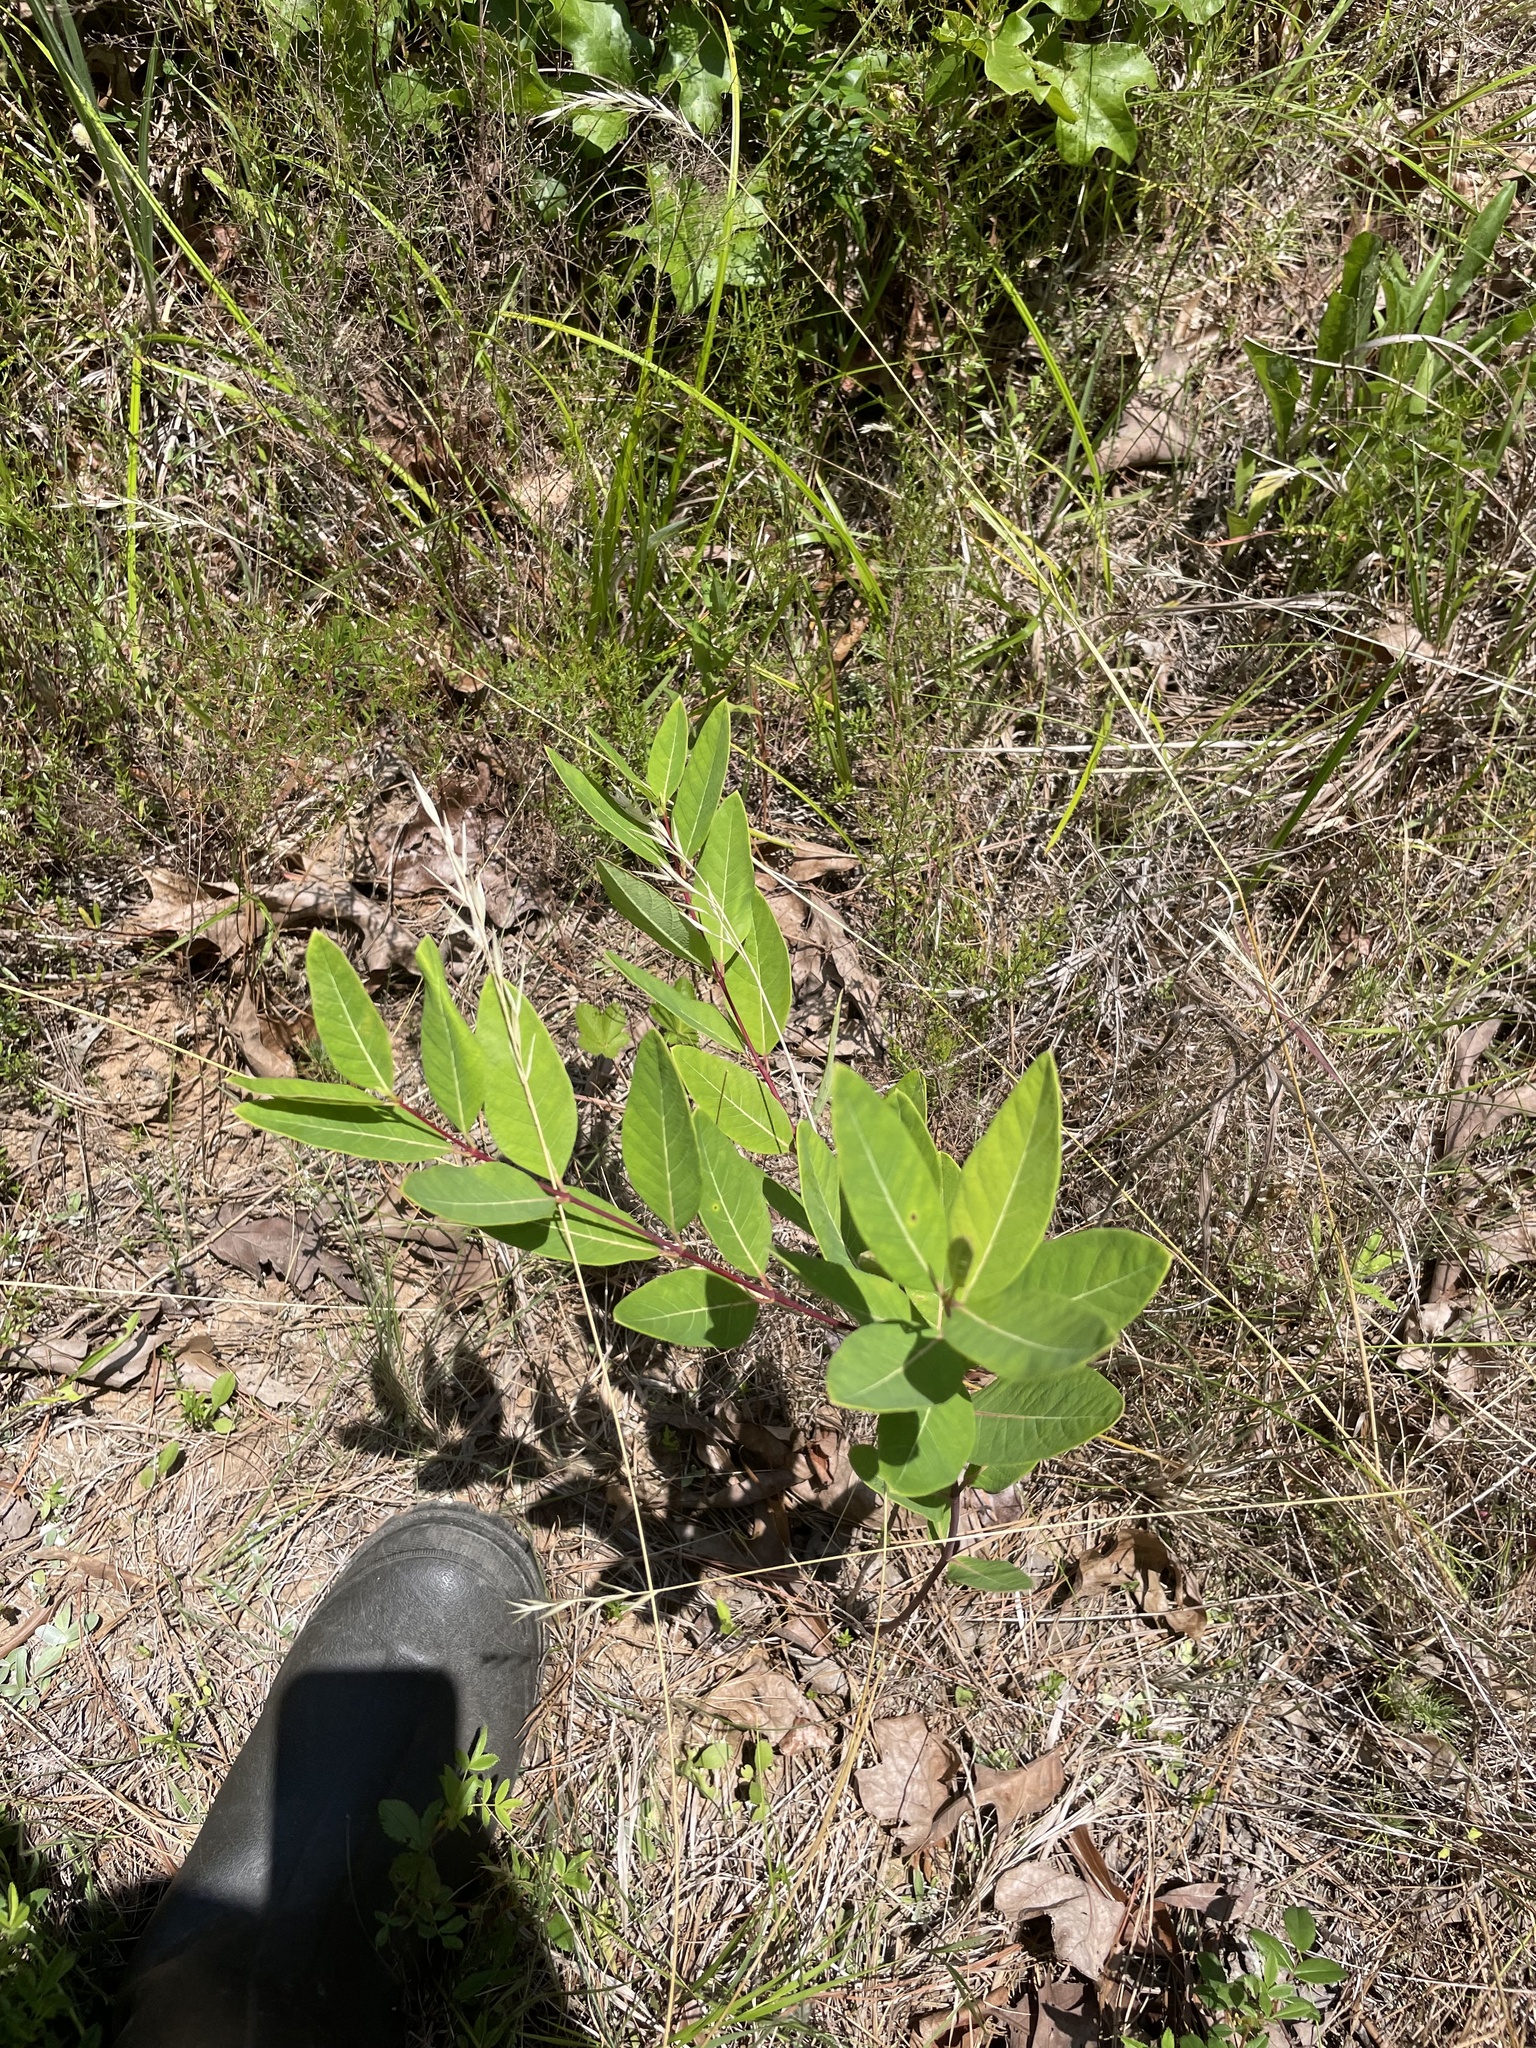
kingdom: Plantae
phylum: Tracheophyta
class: Magnoliopsida
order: Gentianales
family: Apocynaceae
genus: Apocynum
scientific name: Apocynum cannabinum
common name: Hemp dogbane
